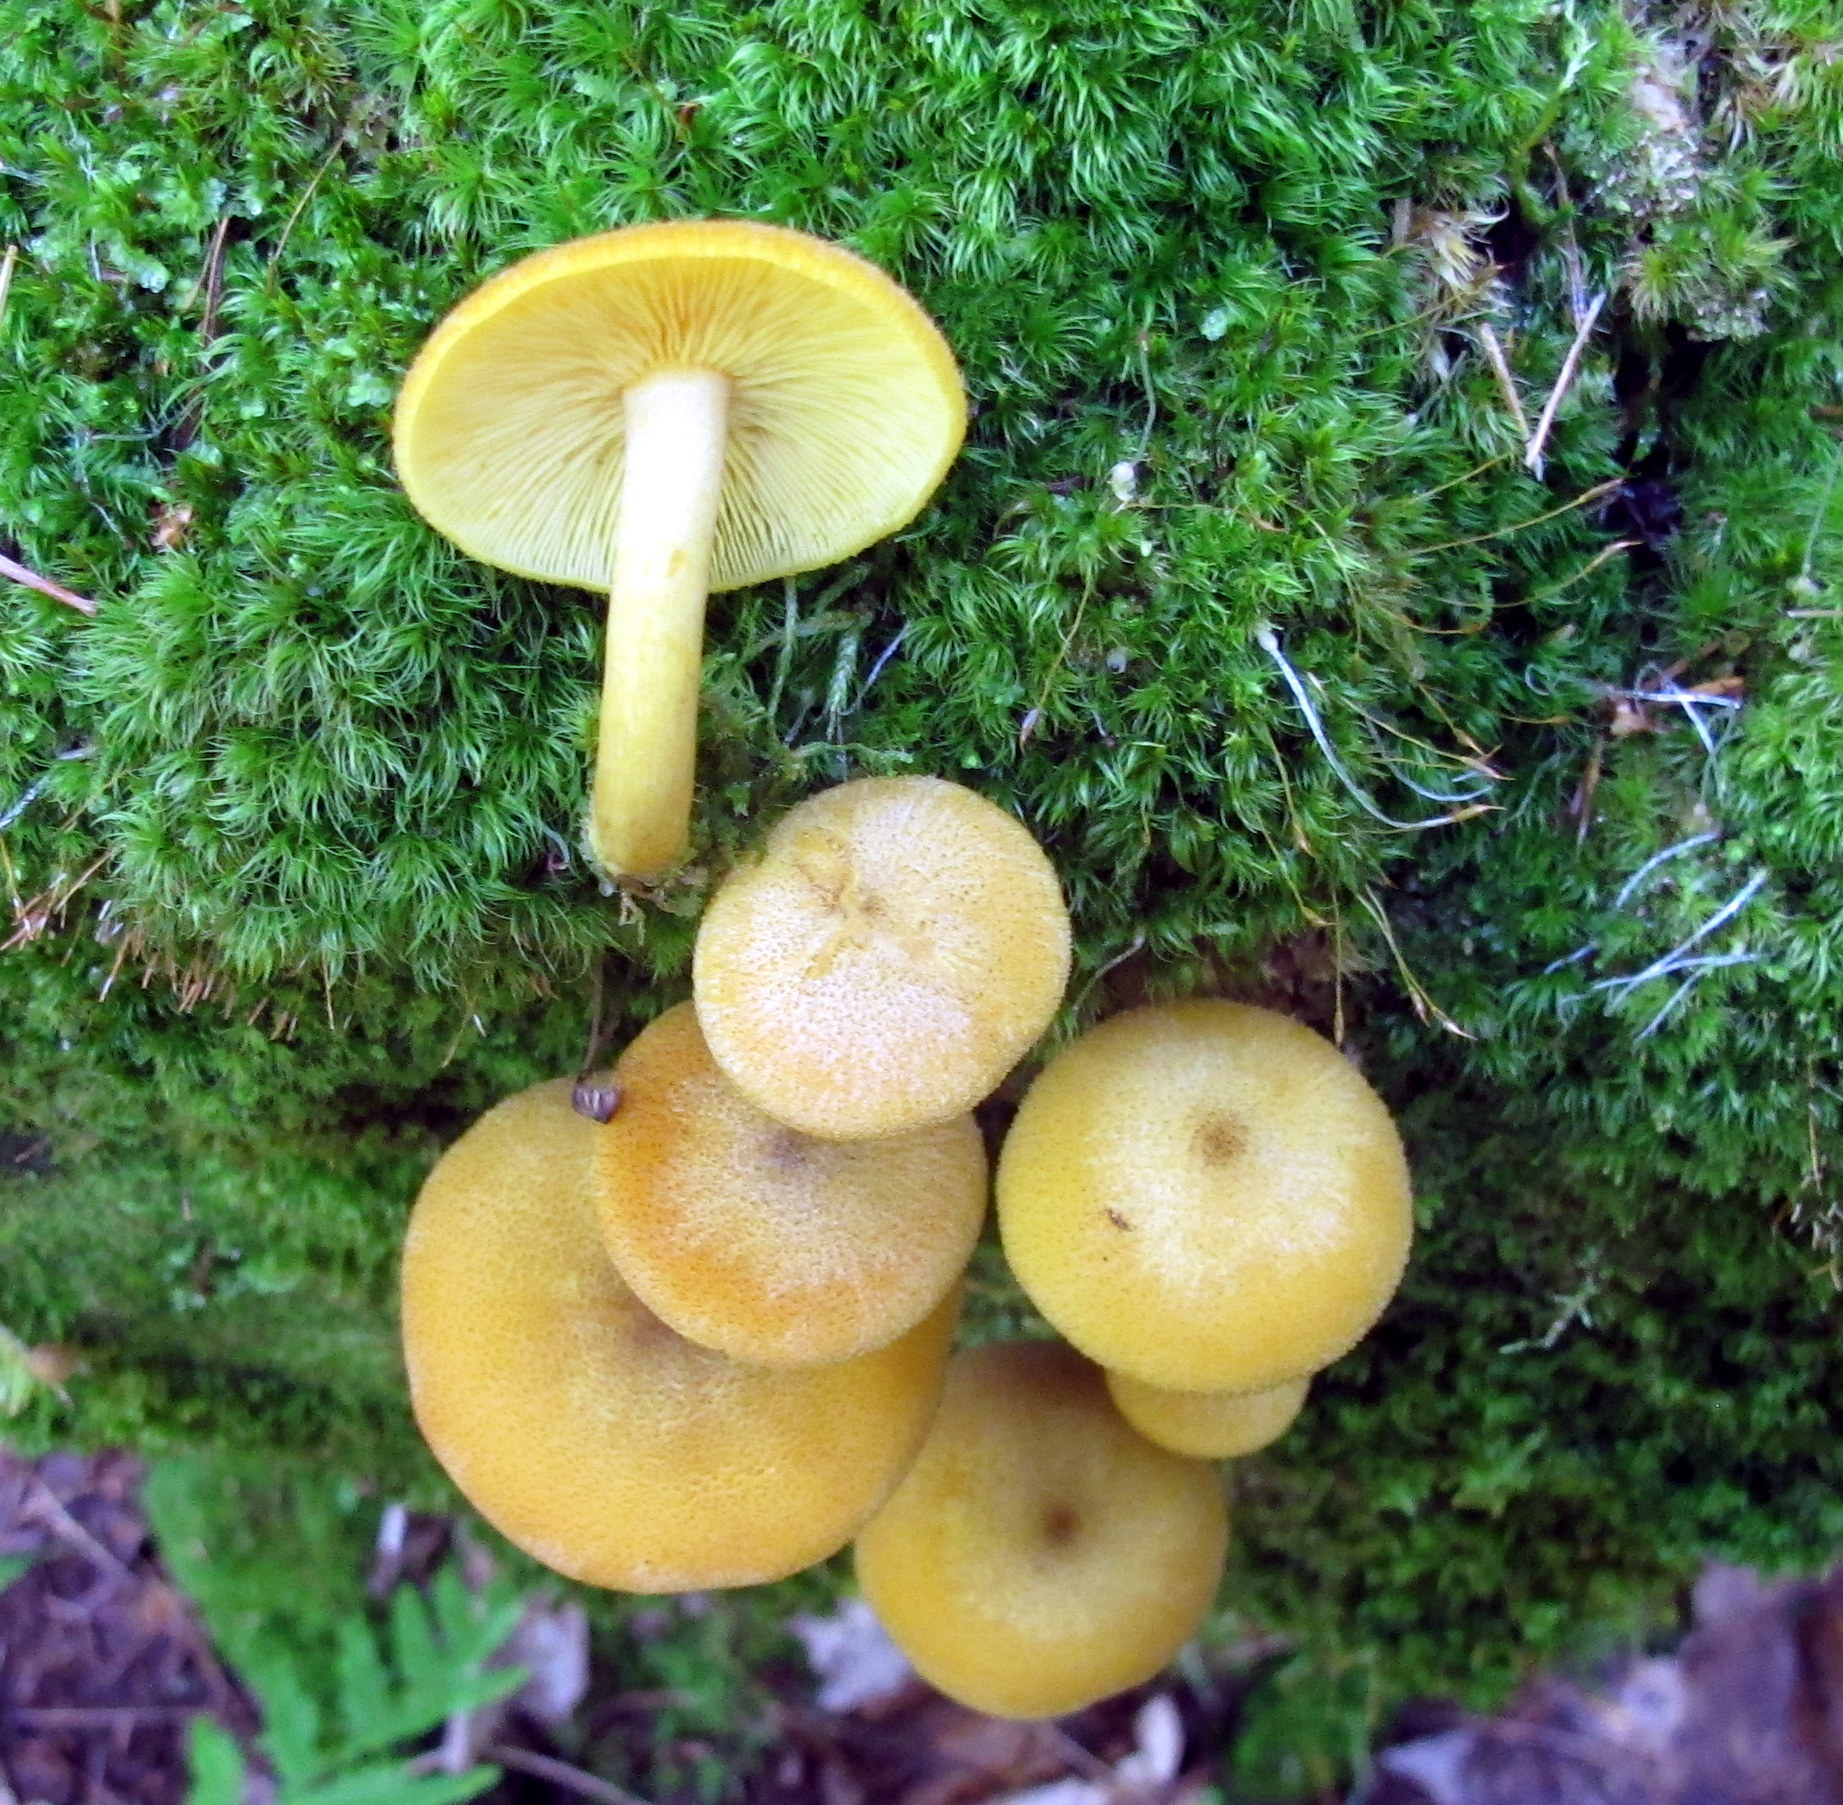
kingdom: Fungi
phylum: Basidiomycota
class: Agaricomycetes
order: Agaricales
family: Tricholomataceae
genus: Tricholomopsis
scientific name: Tricholomopsis decora
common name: Prunes and custard
